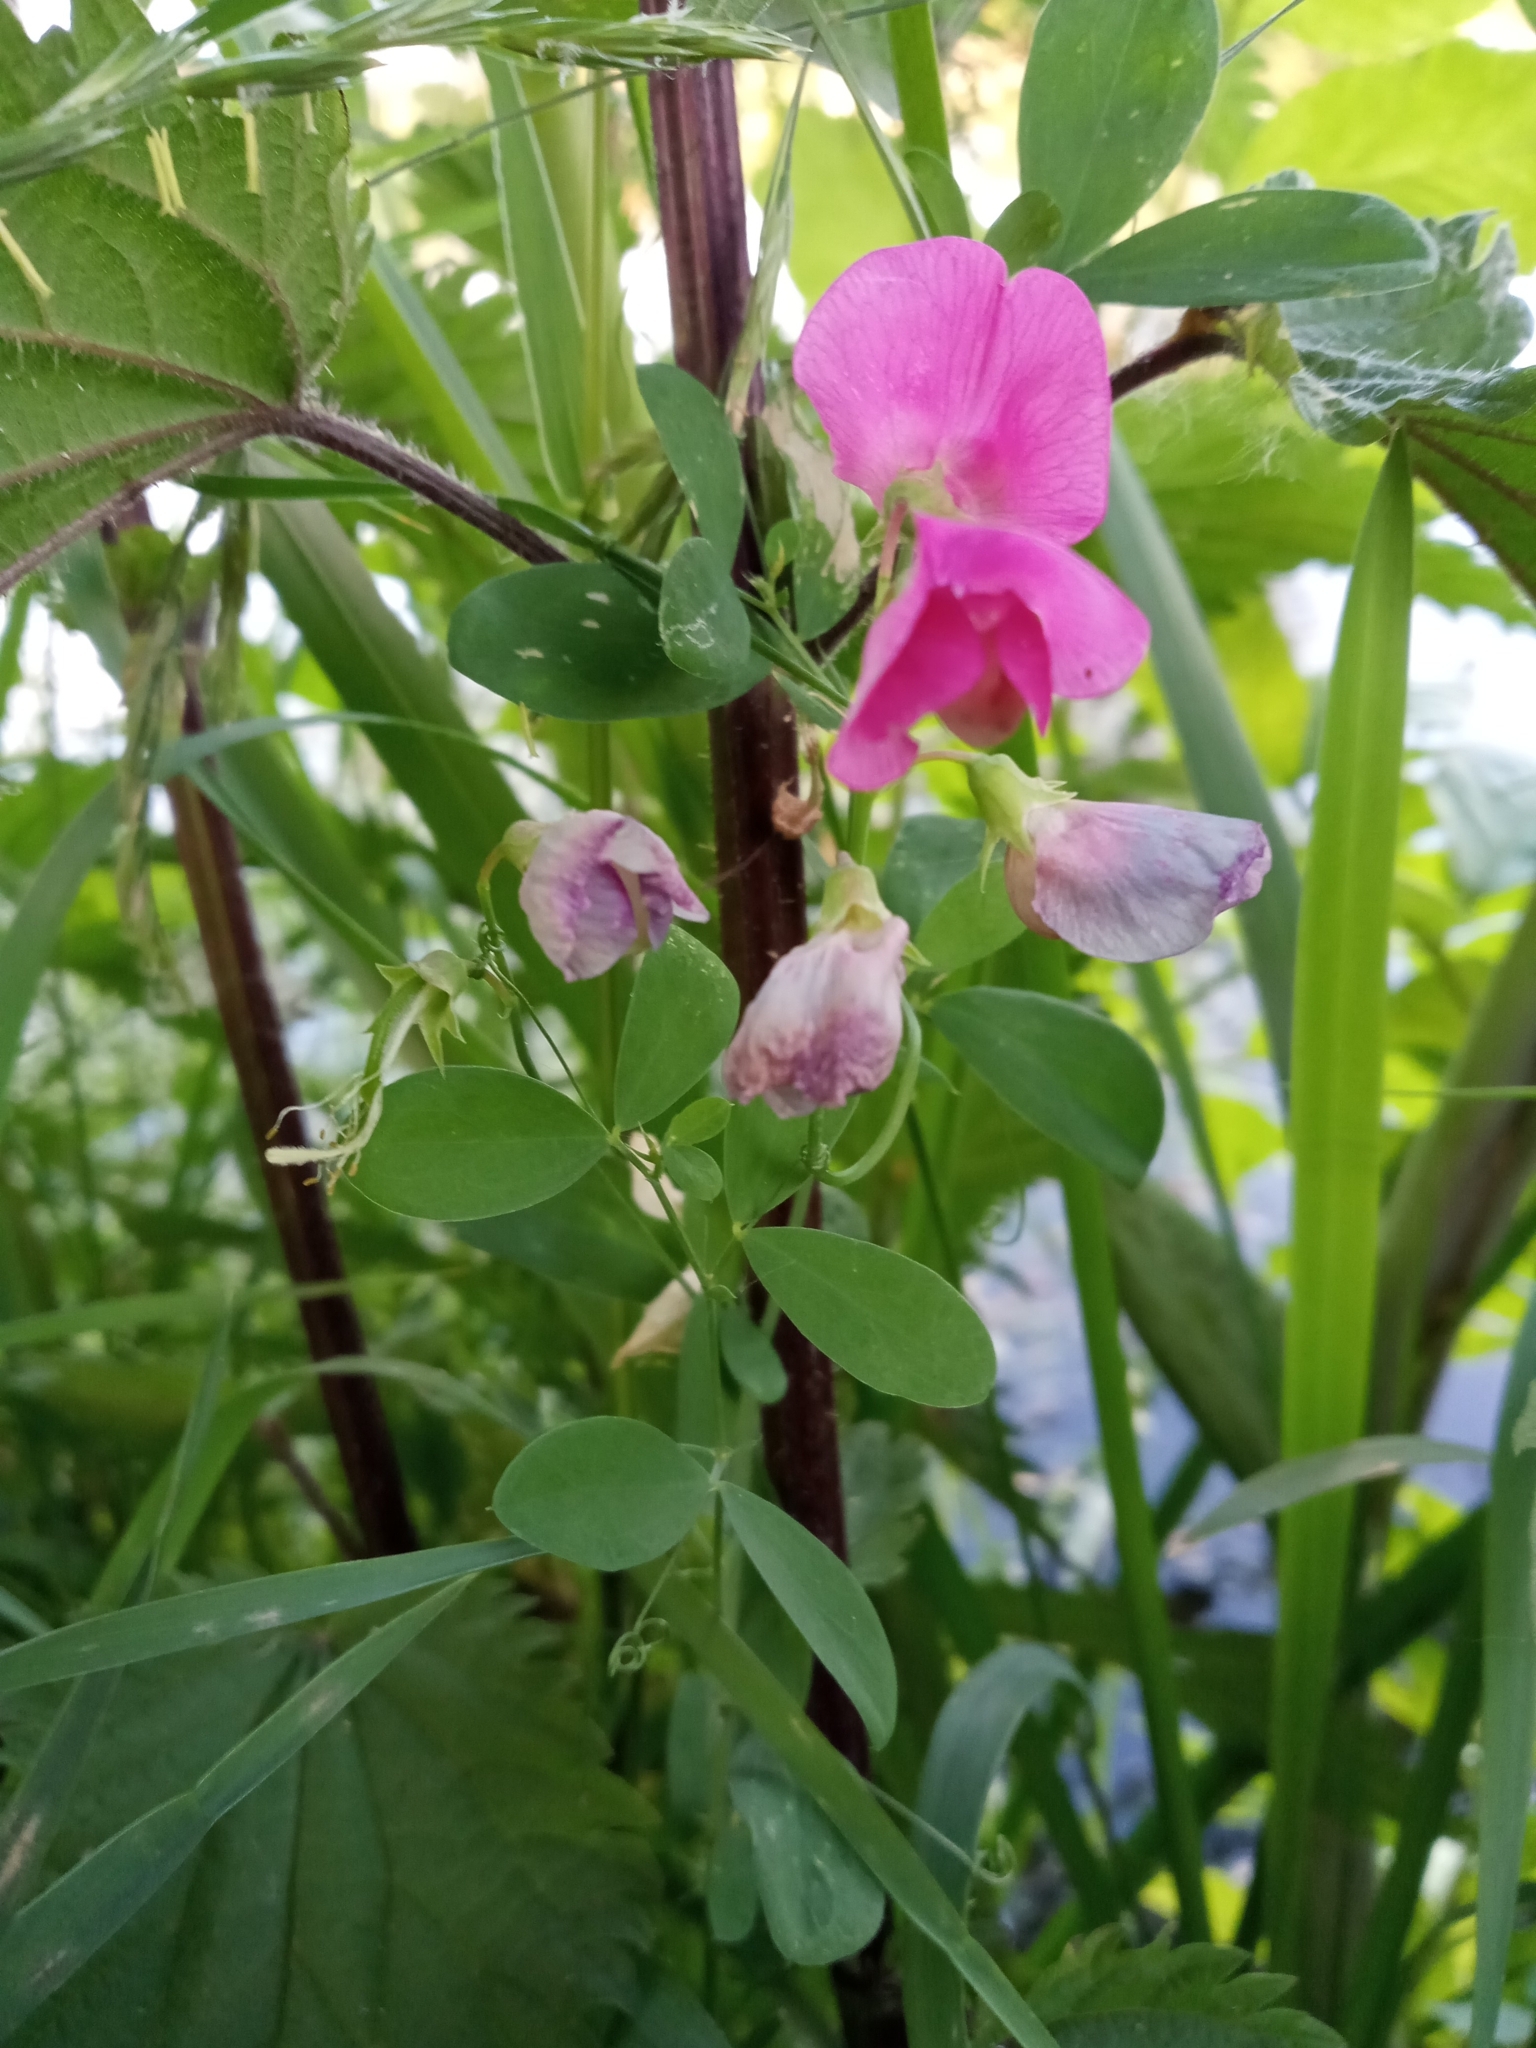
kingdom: Plantae
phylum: Tracheophyta
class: Magnoliopsida
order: Fabales
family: Fabaceae
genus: Lathyrus
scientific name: Lathyrus tuberosus
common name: Tuberous pea
